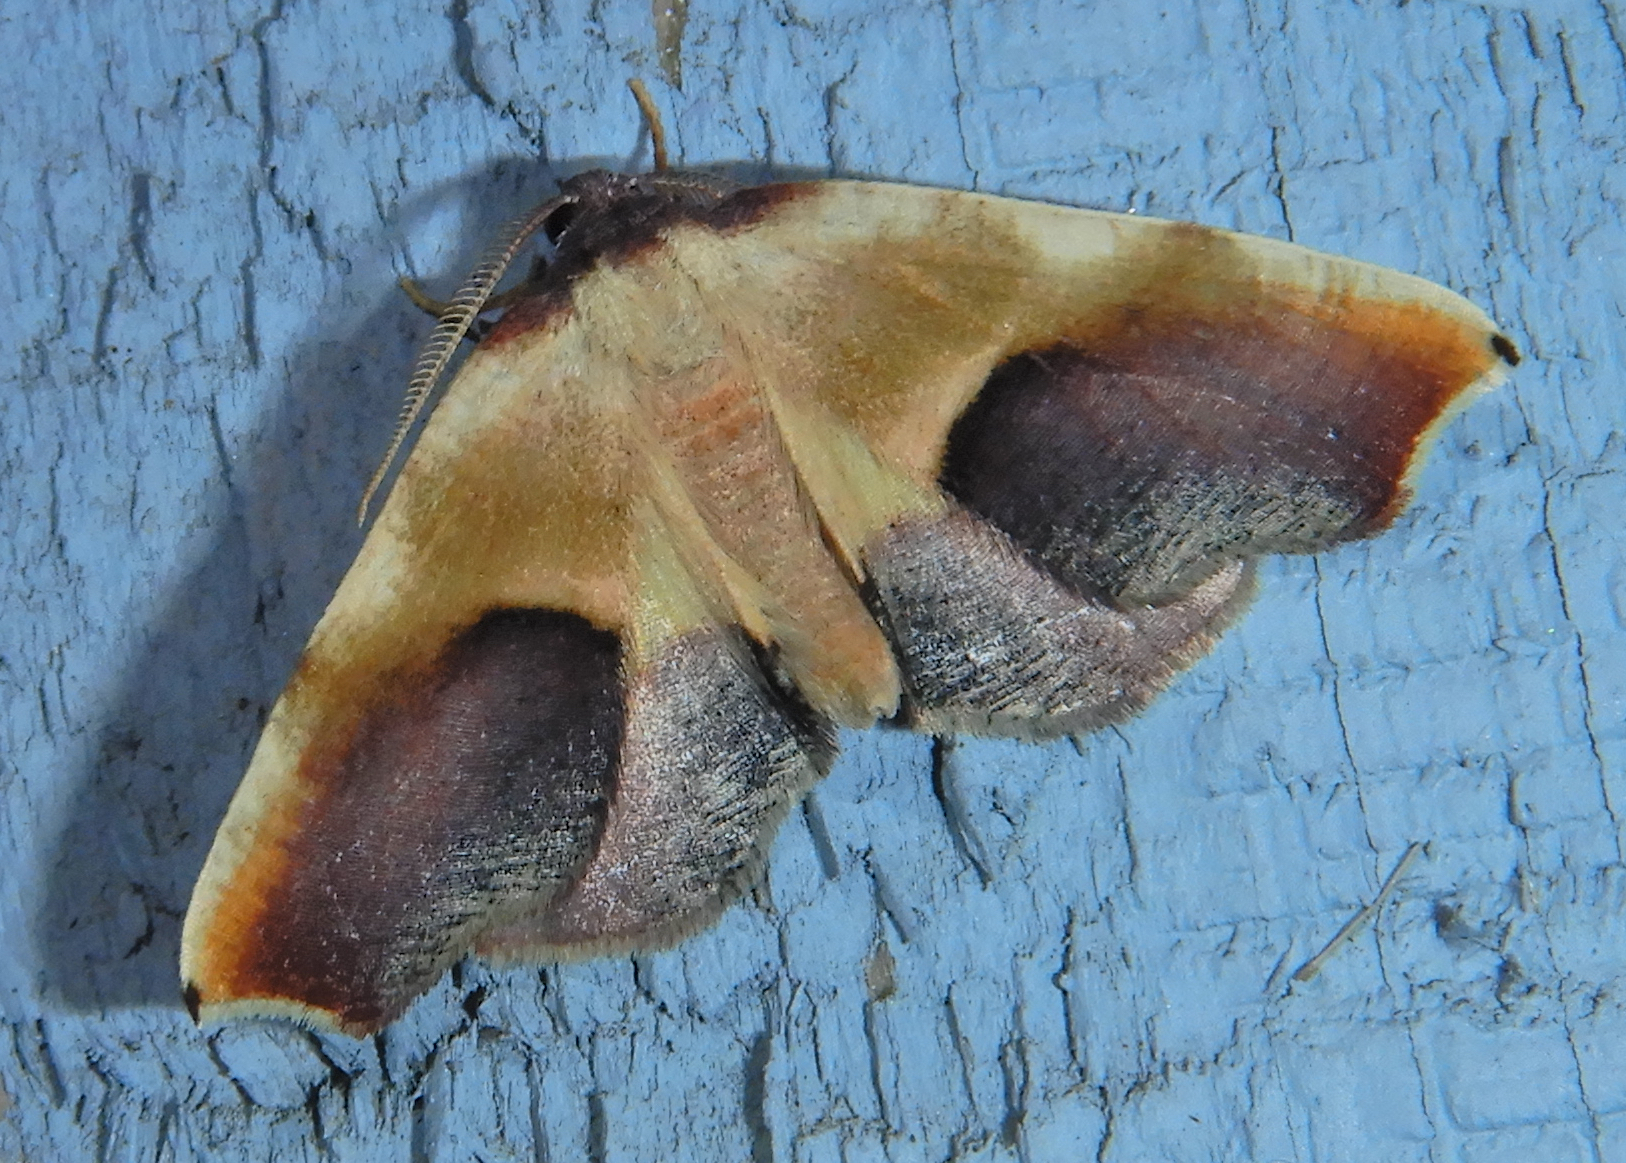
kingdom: Animalia
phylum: Arthropoda
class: Insecta
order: Lepidoptera
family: Geometridae
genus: Plagodis
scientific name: Plagodis kuetzingi
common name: Purple plagodis
